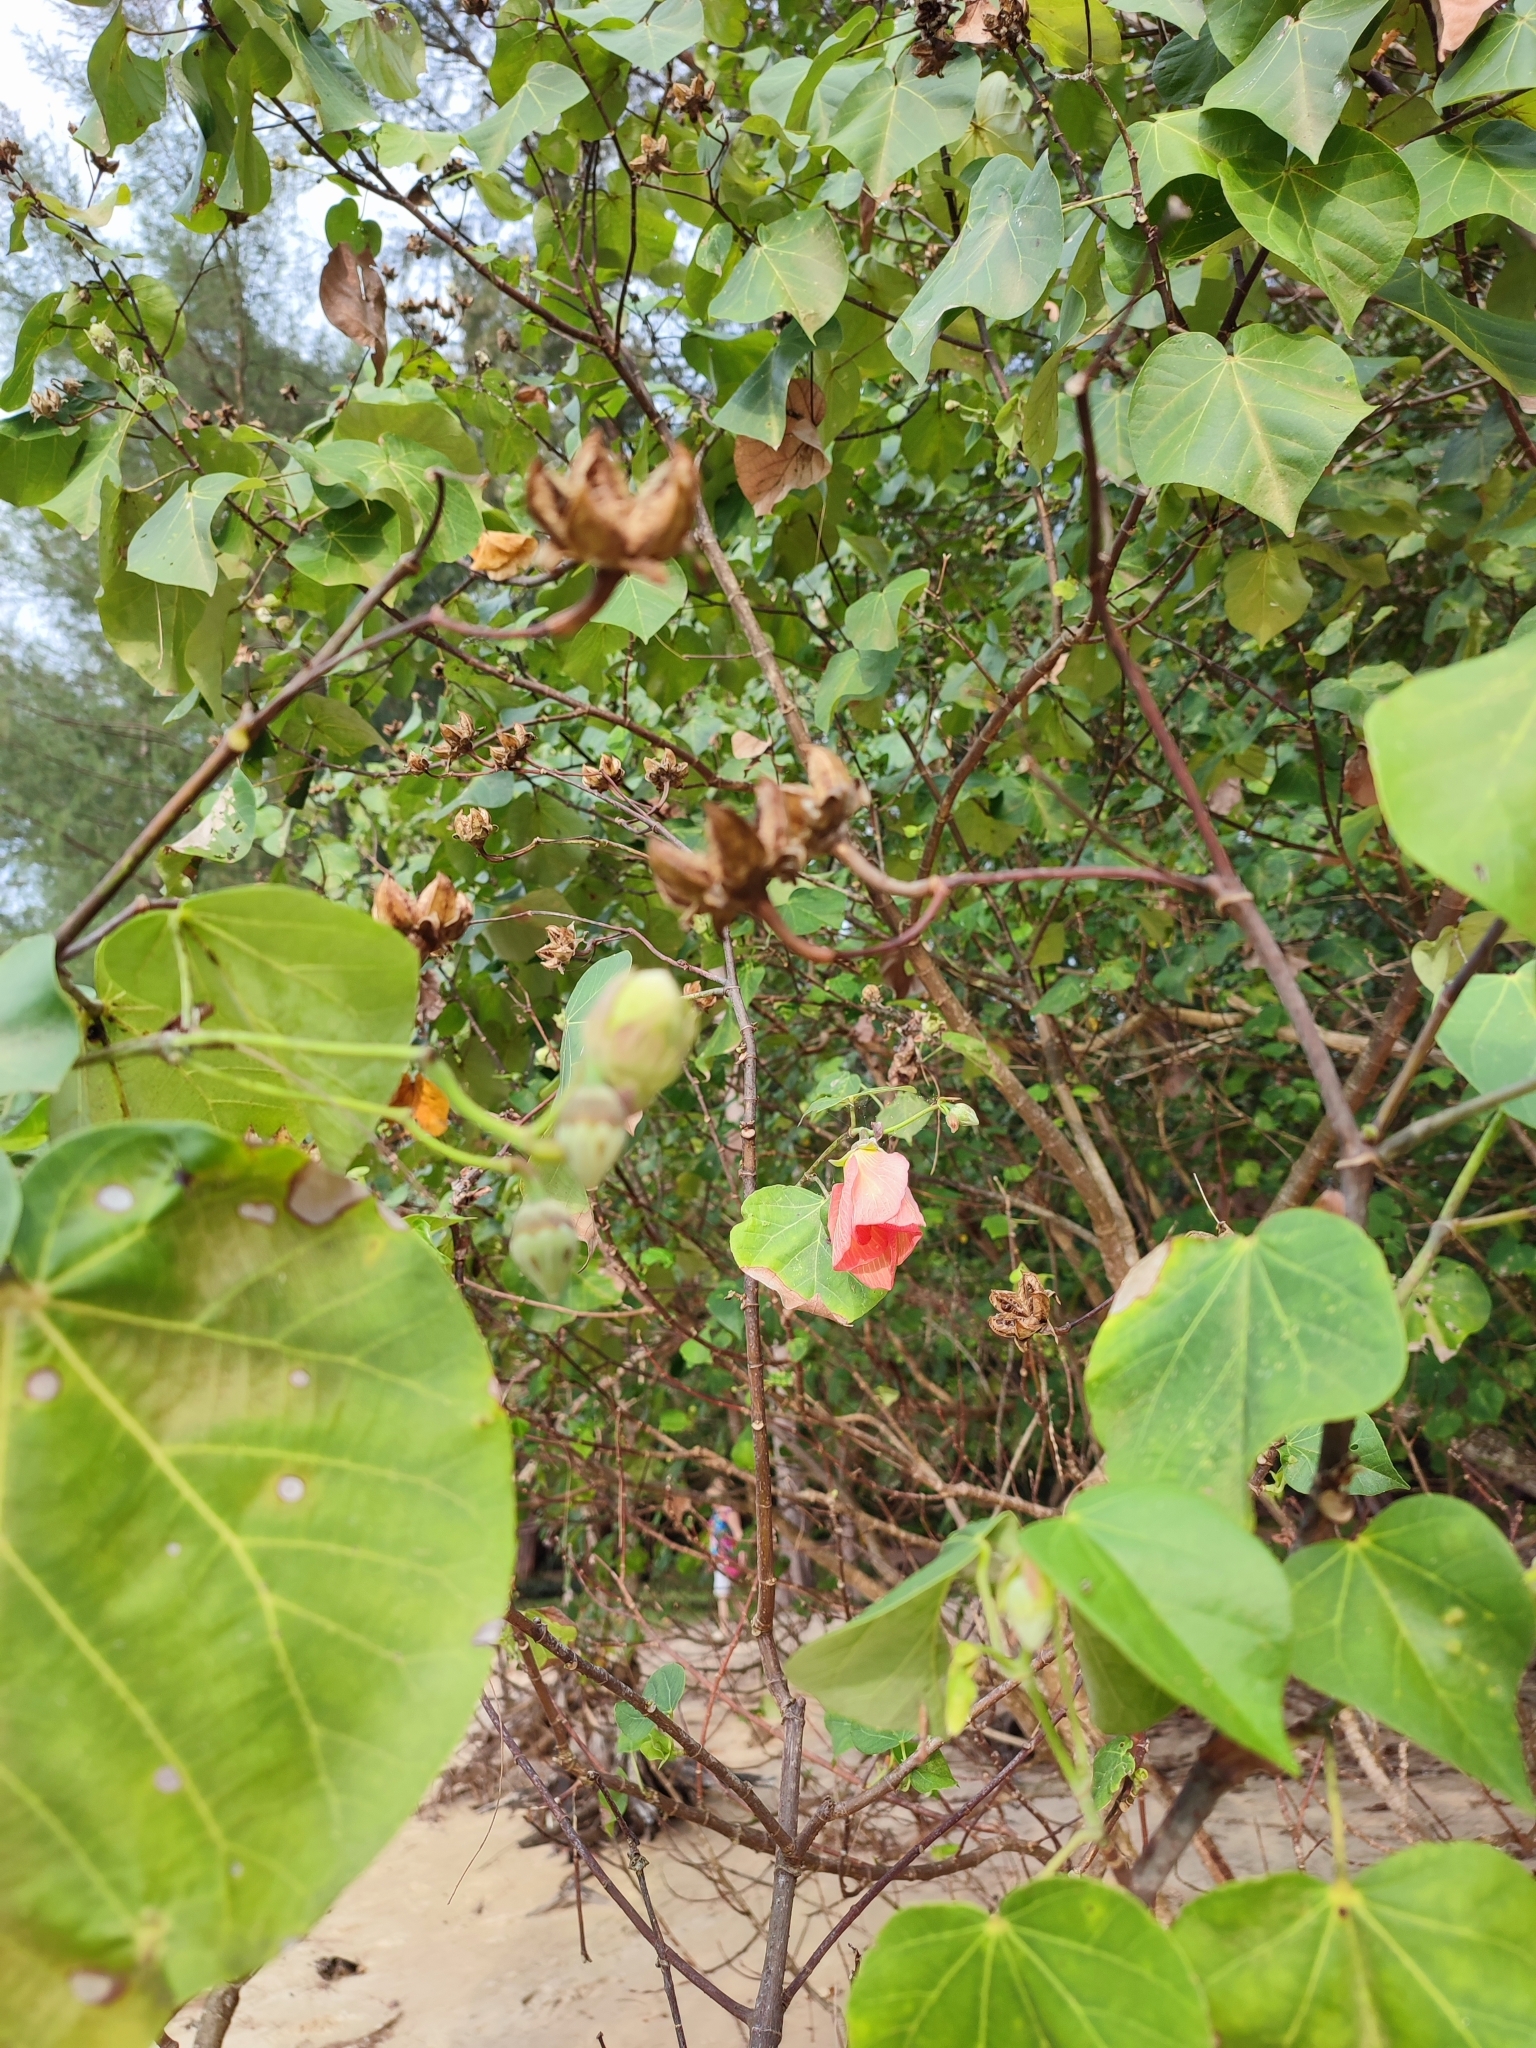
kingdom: Plantae
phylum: Tracheophyta
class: Magnoliopsida
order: Malvales
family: Malvaceae
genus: Talipariti
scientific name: Talipariti tiliaceum
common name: Sea hibiscus
